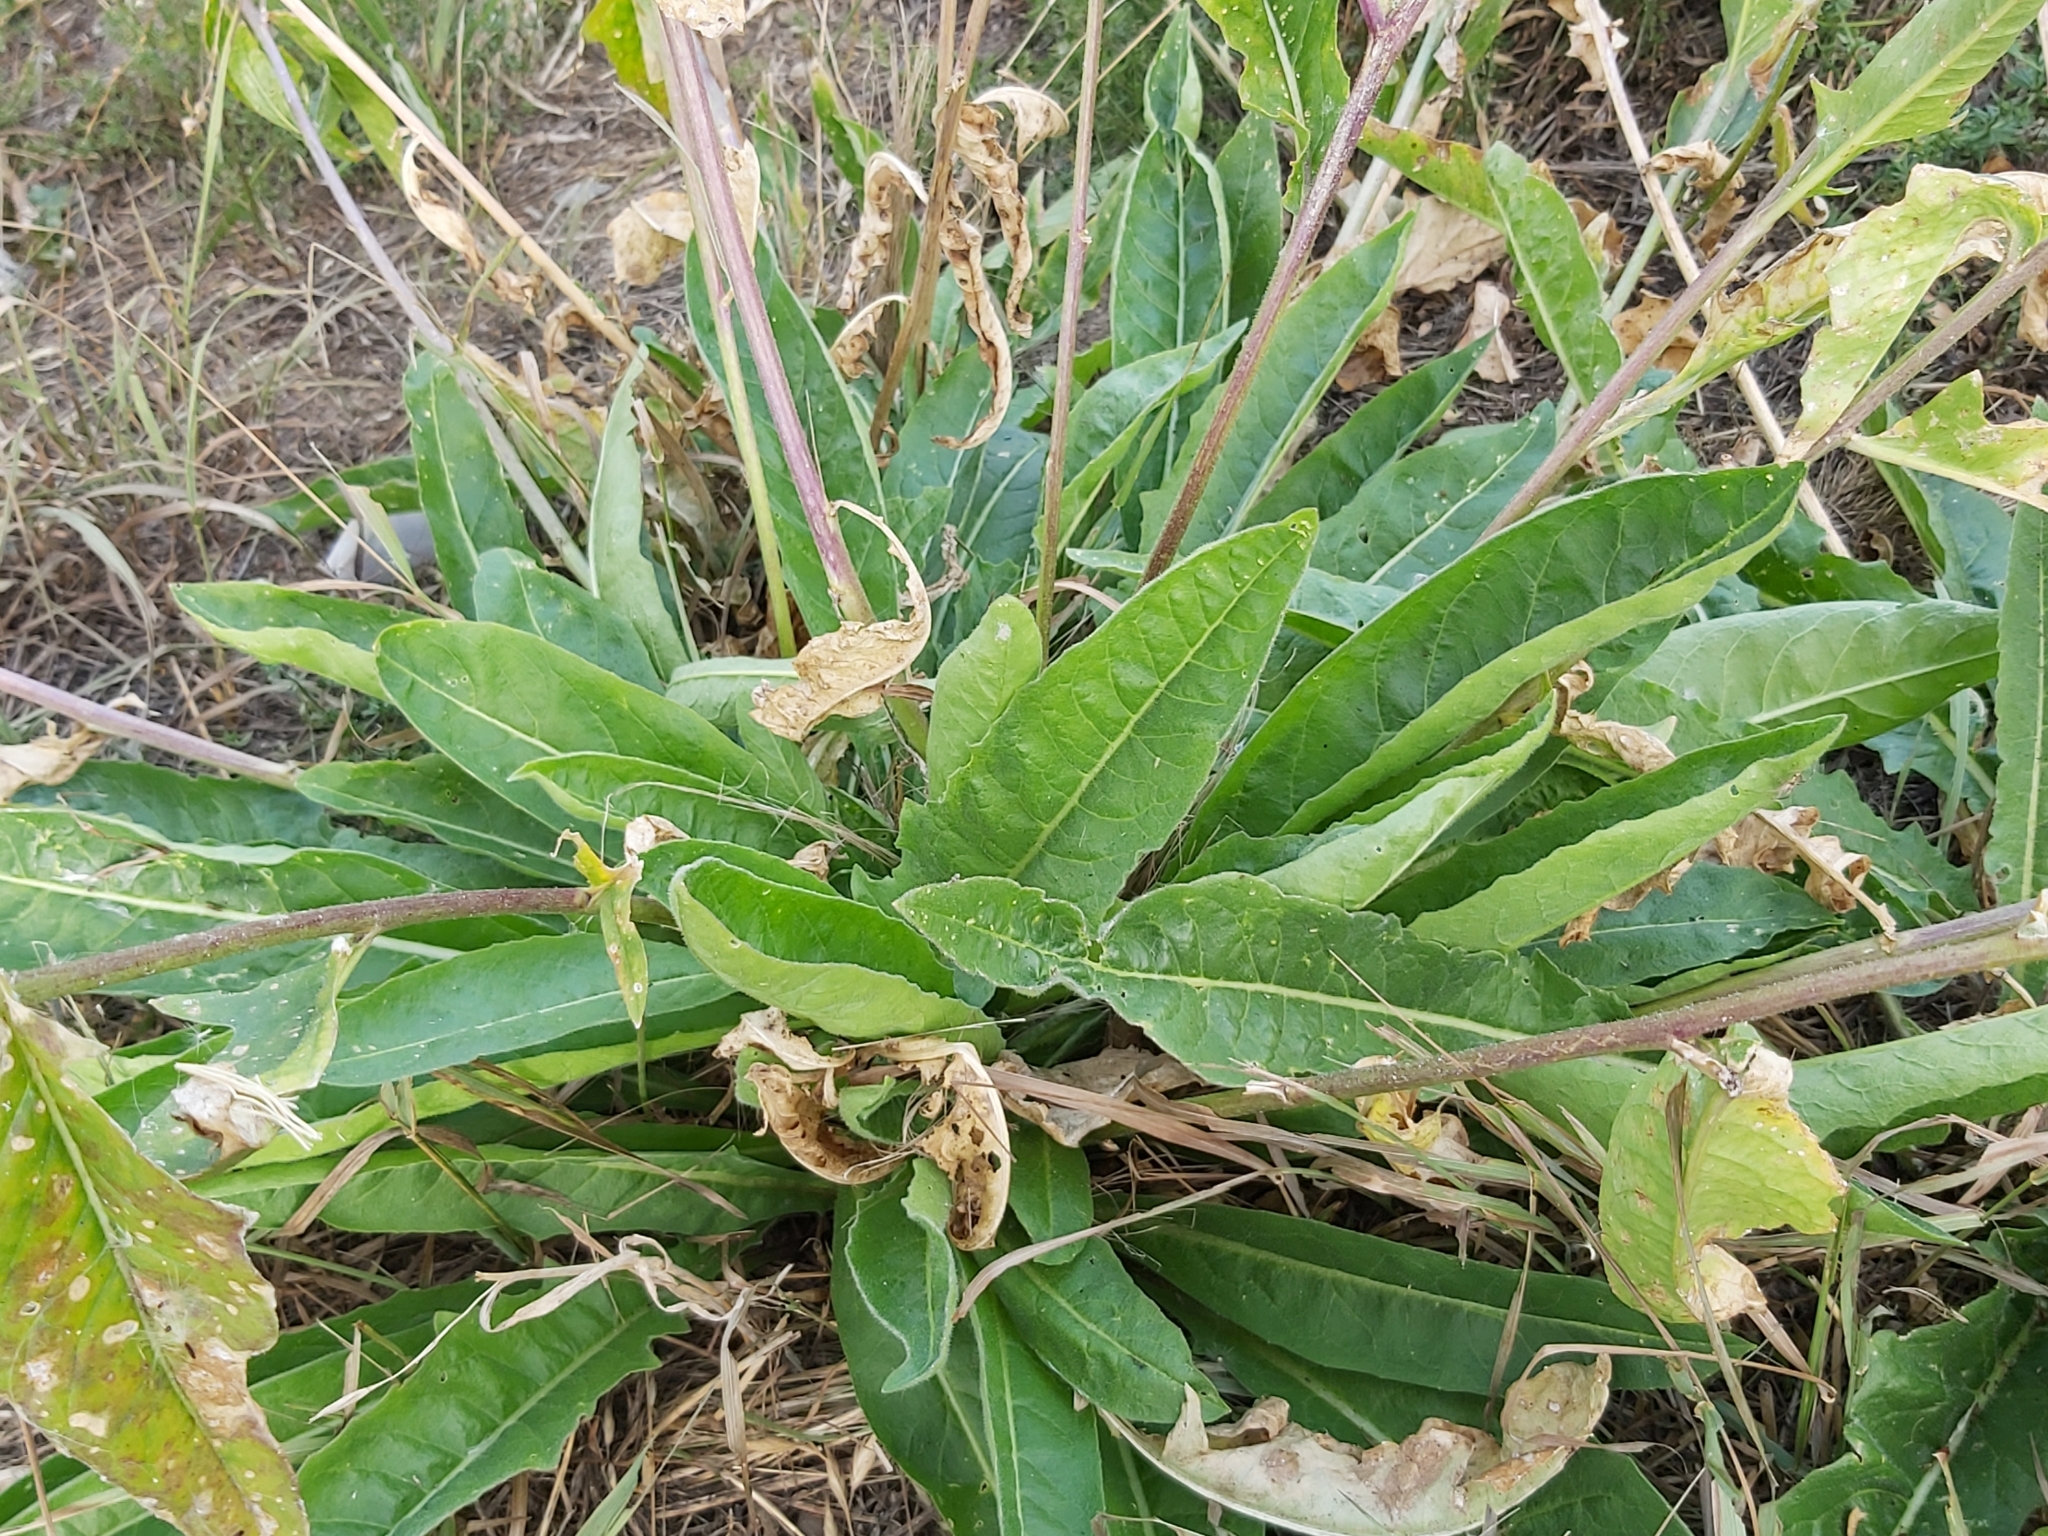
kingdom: Plantae
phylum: Tracheophyta
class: Magnoliopsida
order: Brassicales
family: Brassicaceae
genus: Bunias
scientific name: Bunias orientalis
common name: Warty-cabbage
